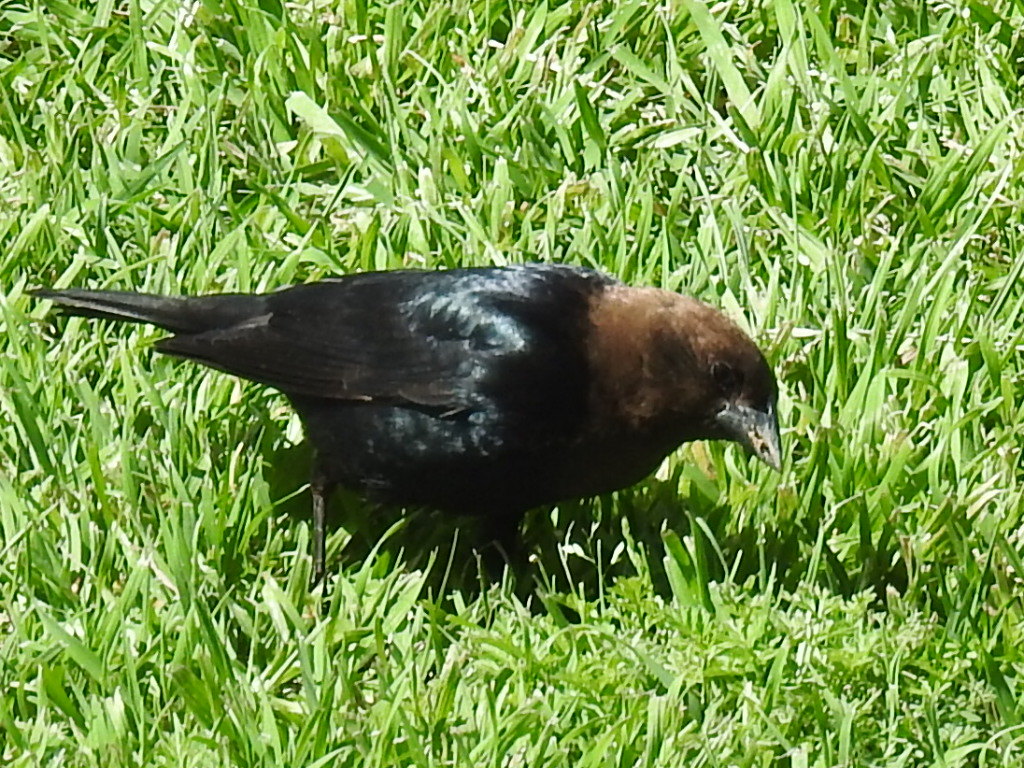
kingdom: Animalia
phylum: Chordata
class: Aves
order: Passeriformes
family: Icteridae
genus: Molothrus
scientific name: Molothrus ater
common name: Brown-headed cowbird
